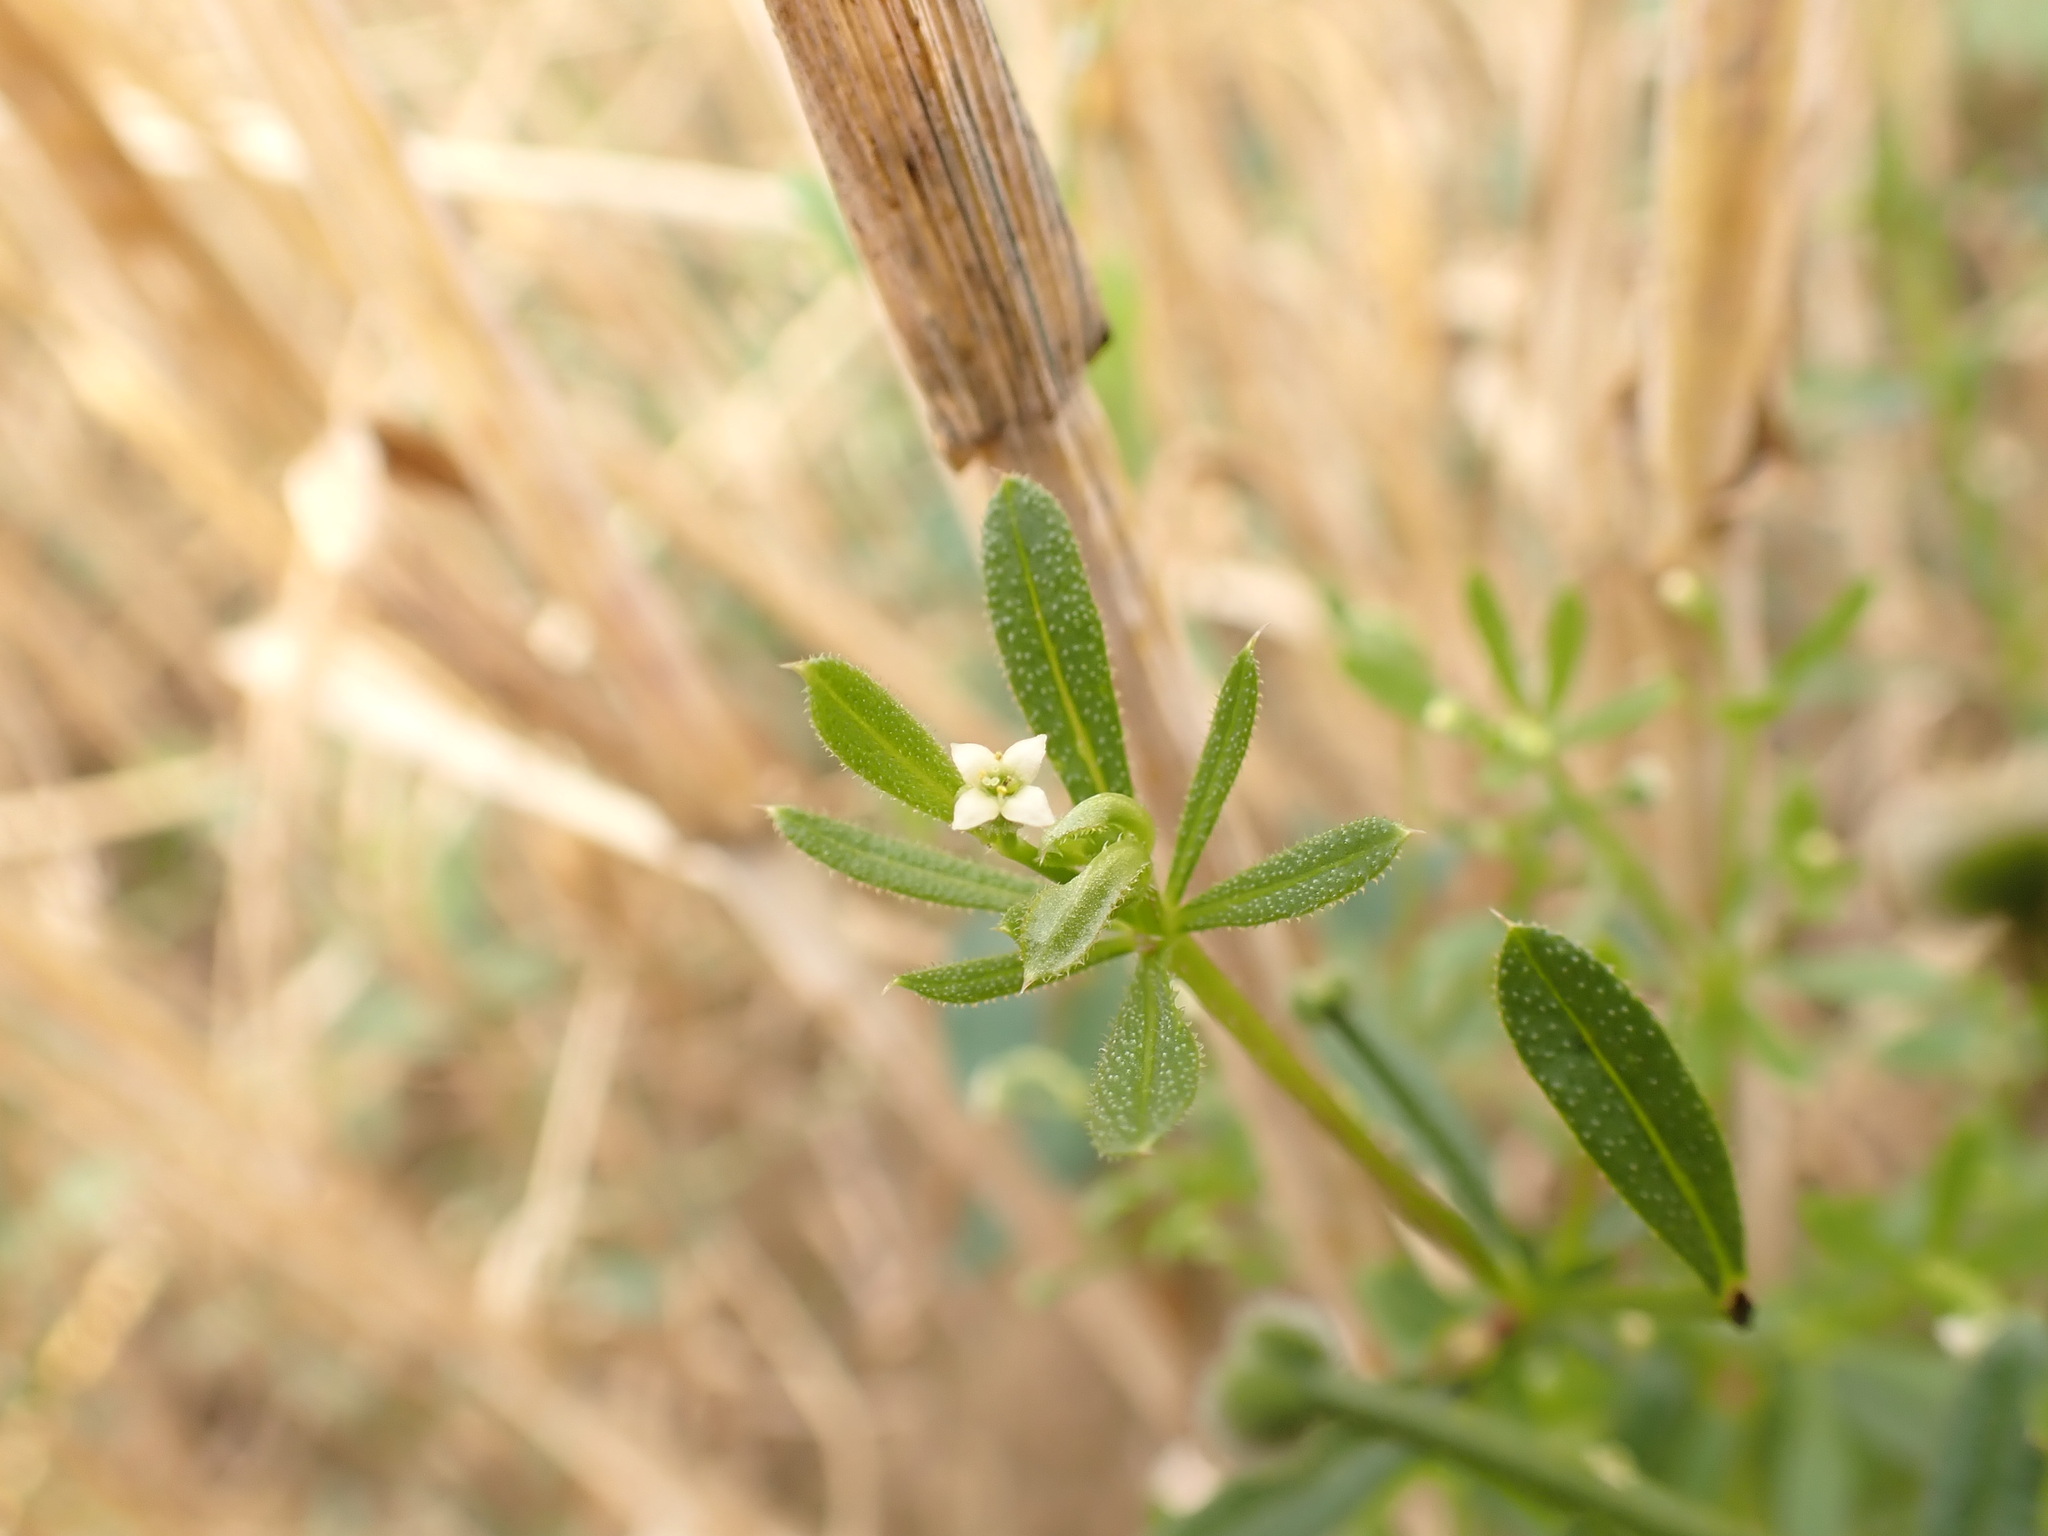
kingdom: Plantae
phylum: Tracheophyta
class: Magnoliopsida
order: Gentianales
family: Rubiaceae
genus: Galium
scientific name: Galium aparine
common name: Cleavers
